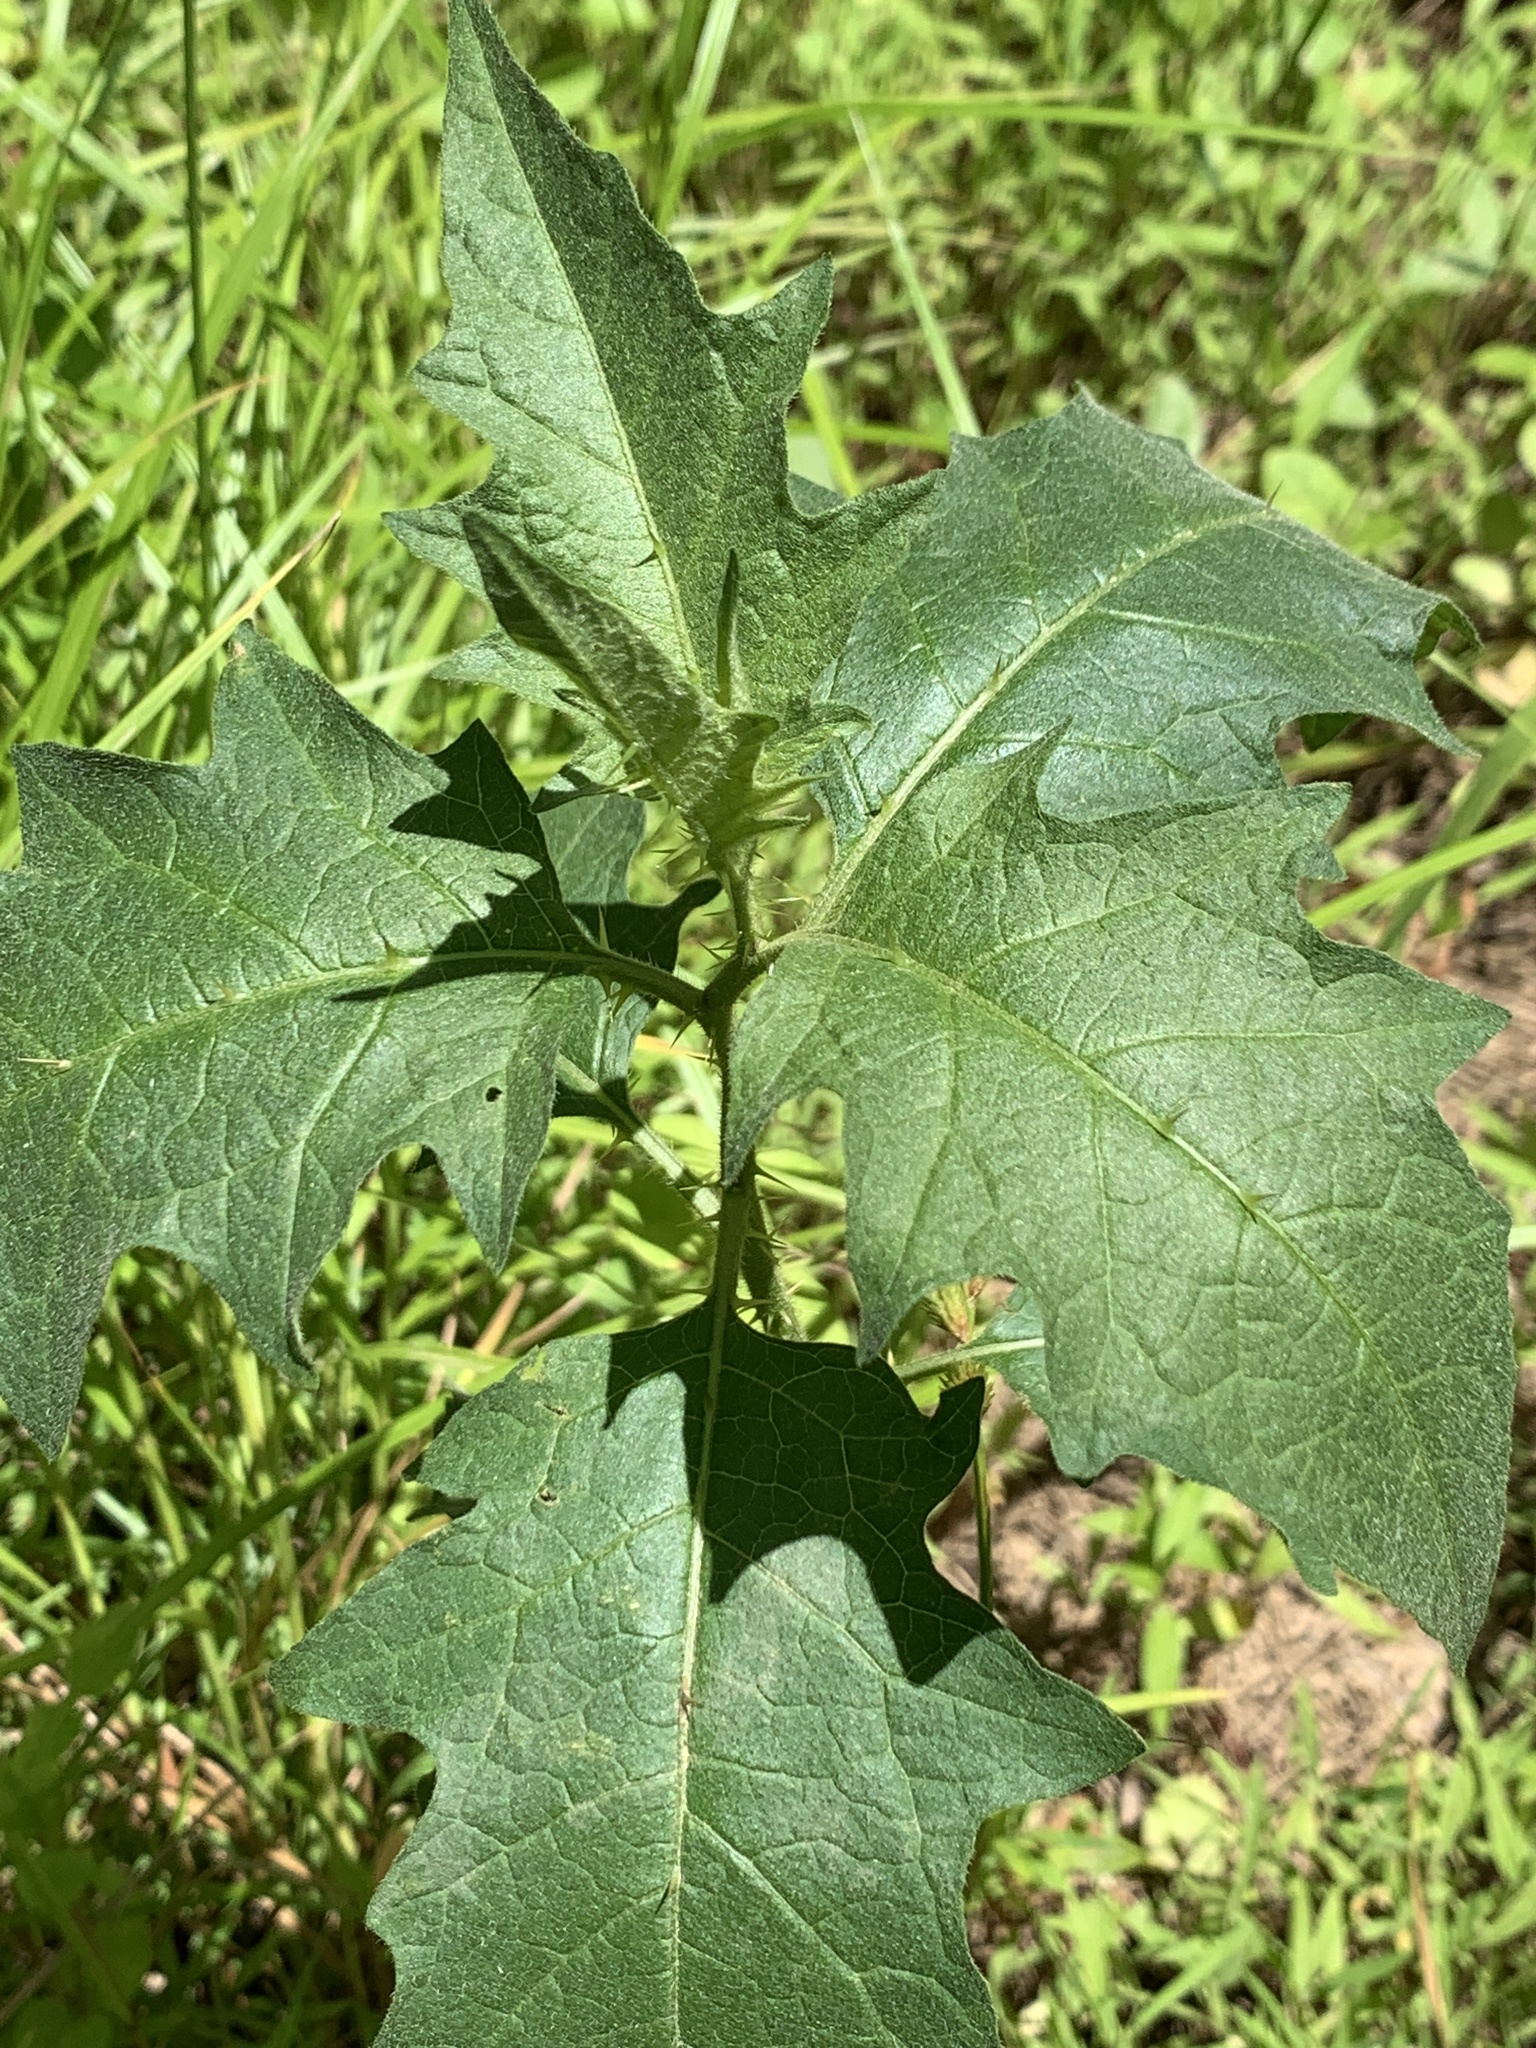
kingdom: Plantae
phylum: Tracheophyta
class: Magnoliopsida
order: Solanales
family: Solanaceae
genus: Solanum
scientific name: Solanum carolinense
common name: Horse-nettle
